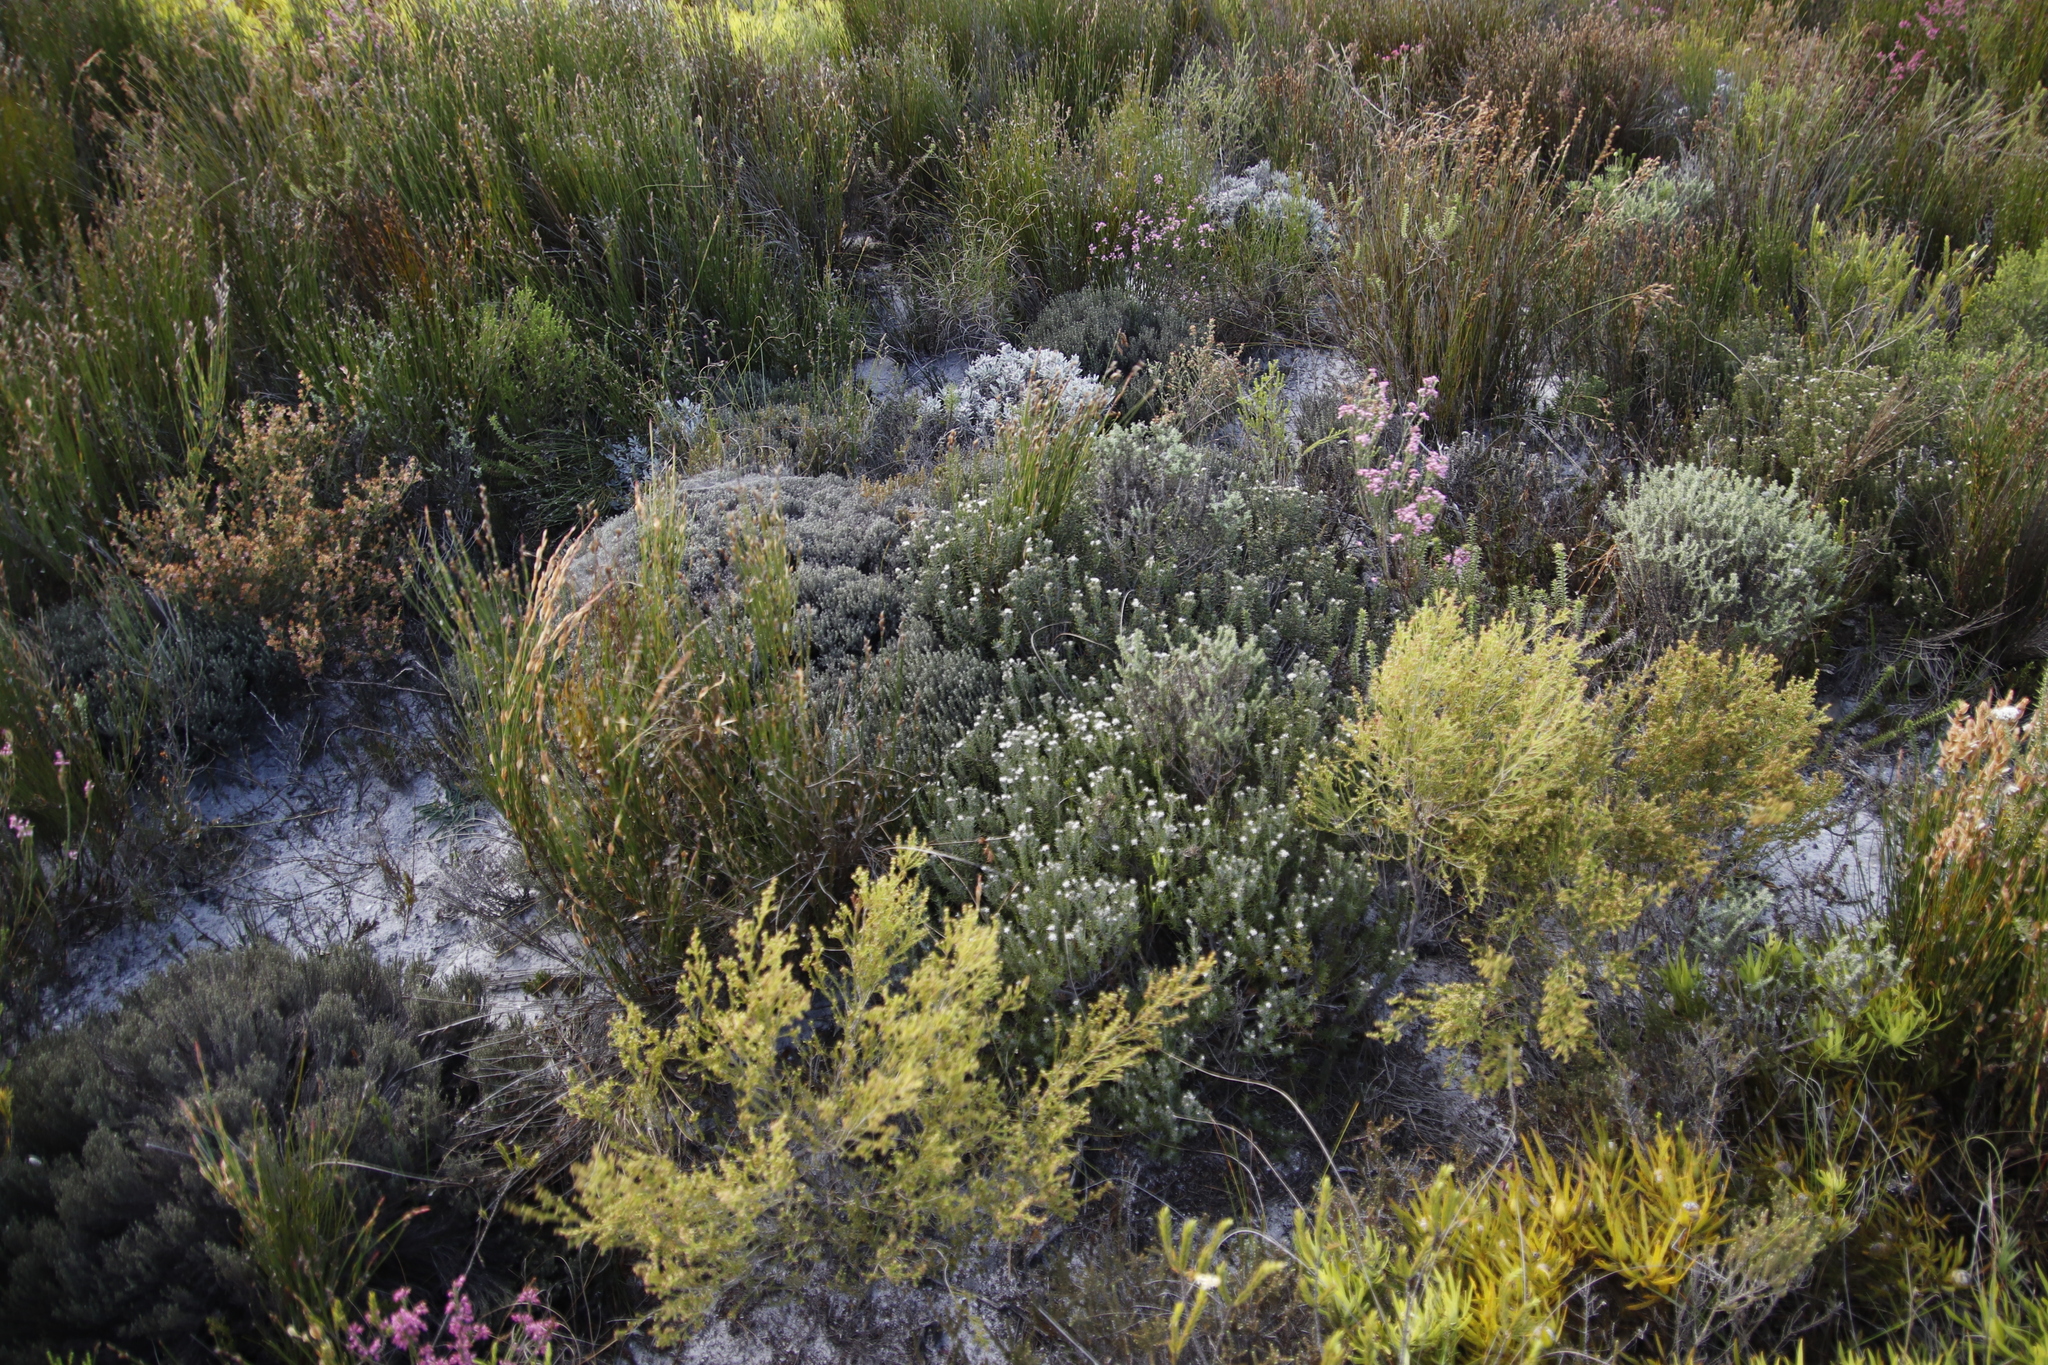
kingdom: Plantae
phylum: Tracheophyta
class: Magnoliopsida
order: Rosales
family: Rhamnaceae
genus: Trichocephalus
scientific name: Trichocephalus stipularis
